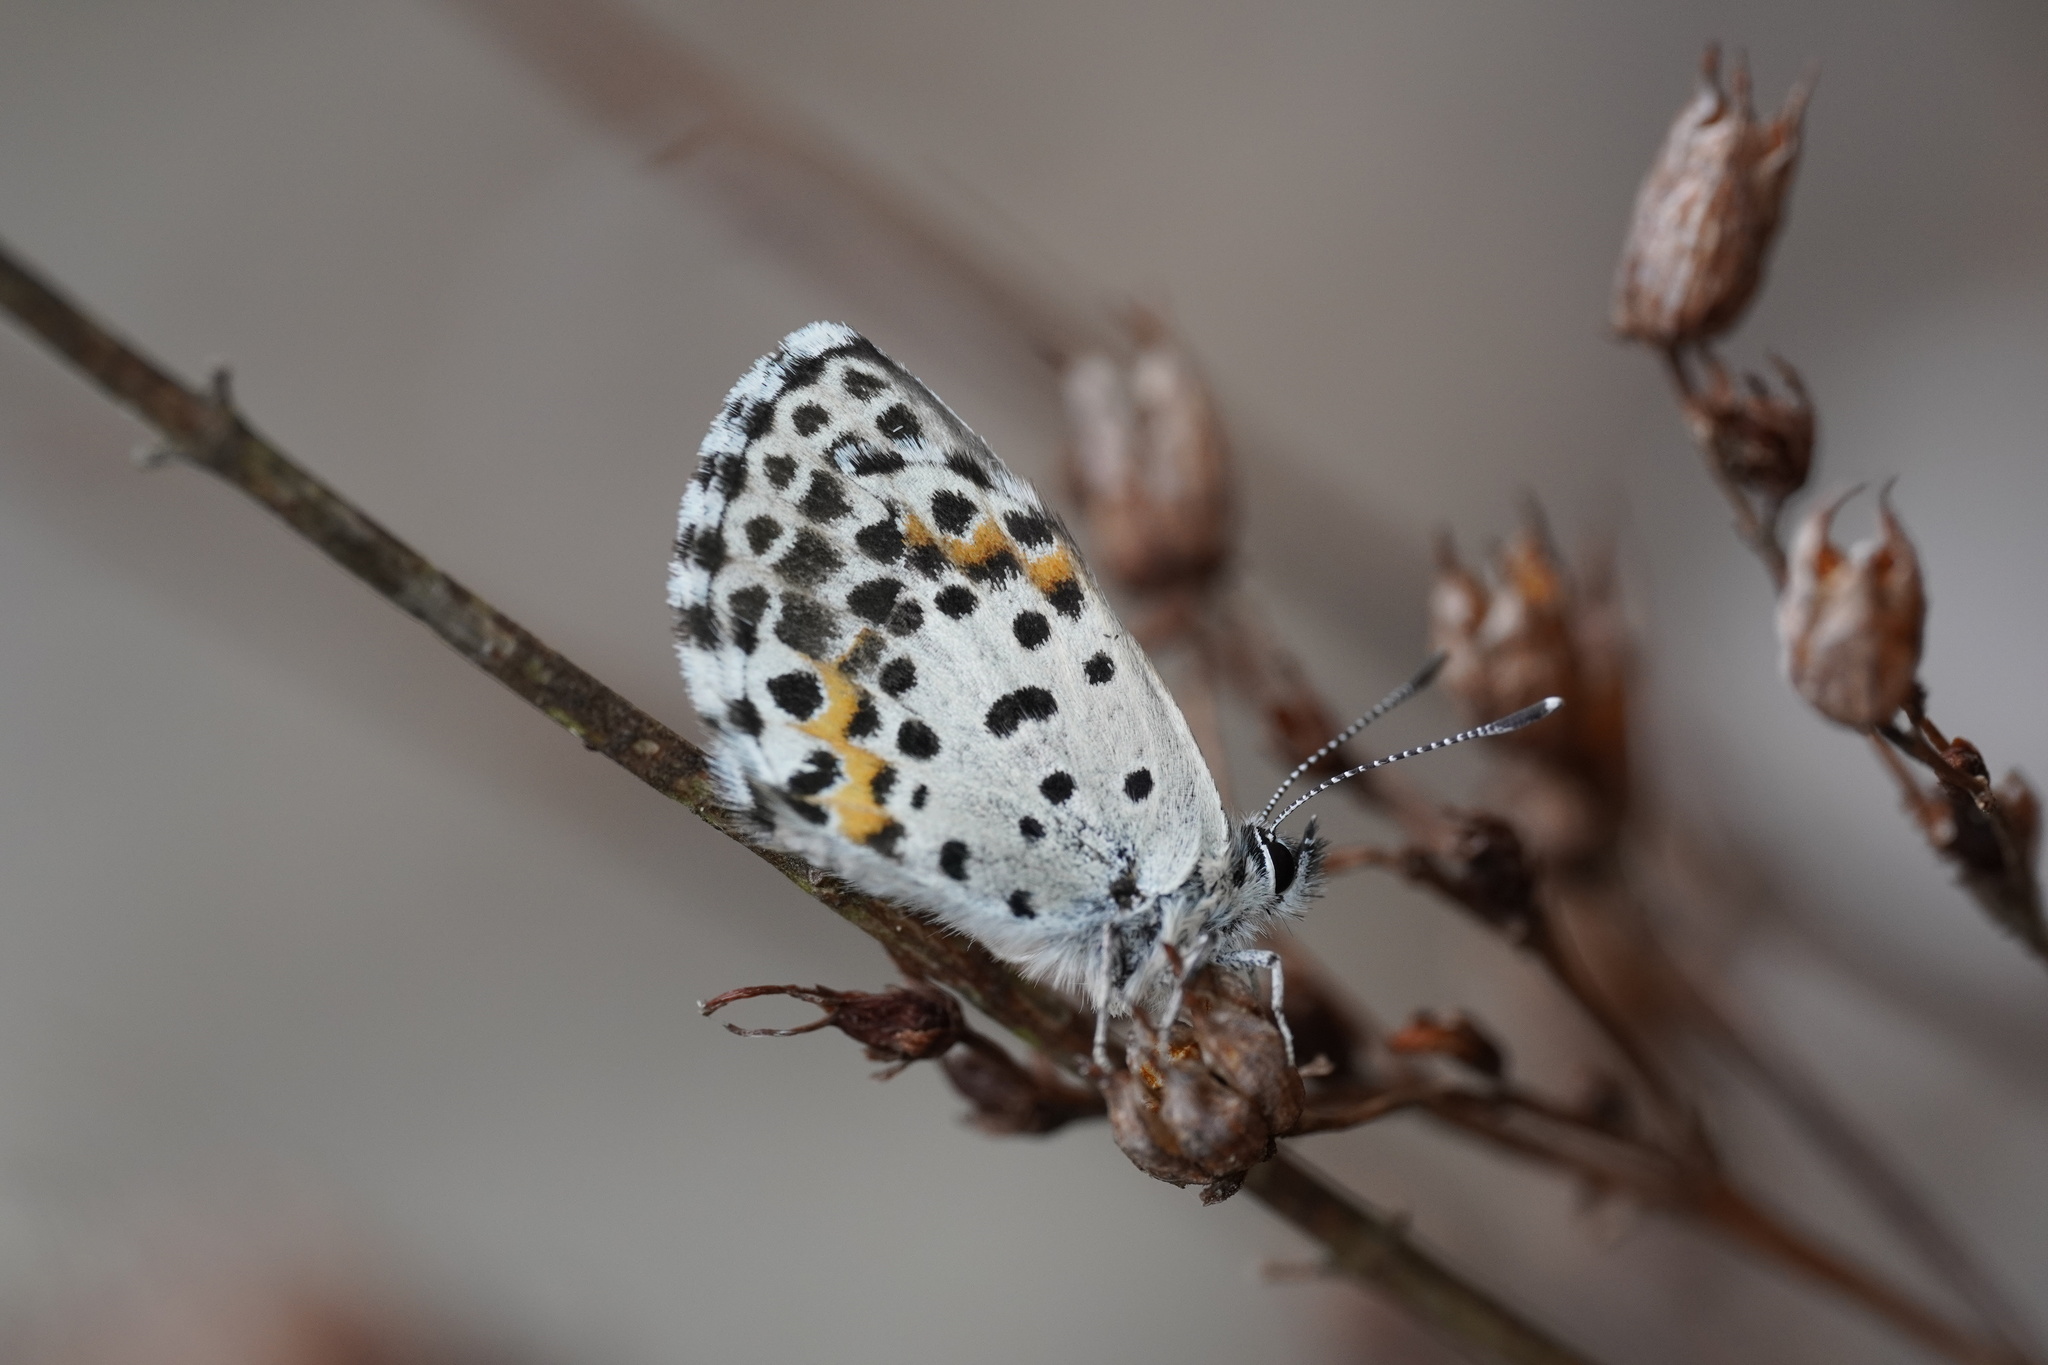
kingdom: Animalia
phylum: Arthropoda
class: Insecta
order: Lepidoptera
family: Lycaenidae
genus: Scolitantides
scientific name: Scolitantides orion
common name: Chequered blue
